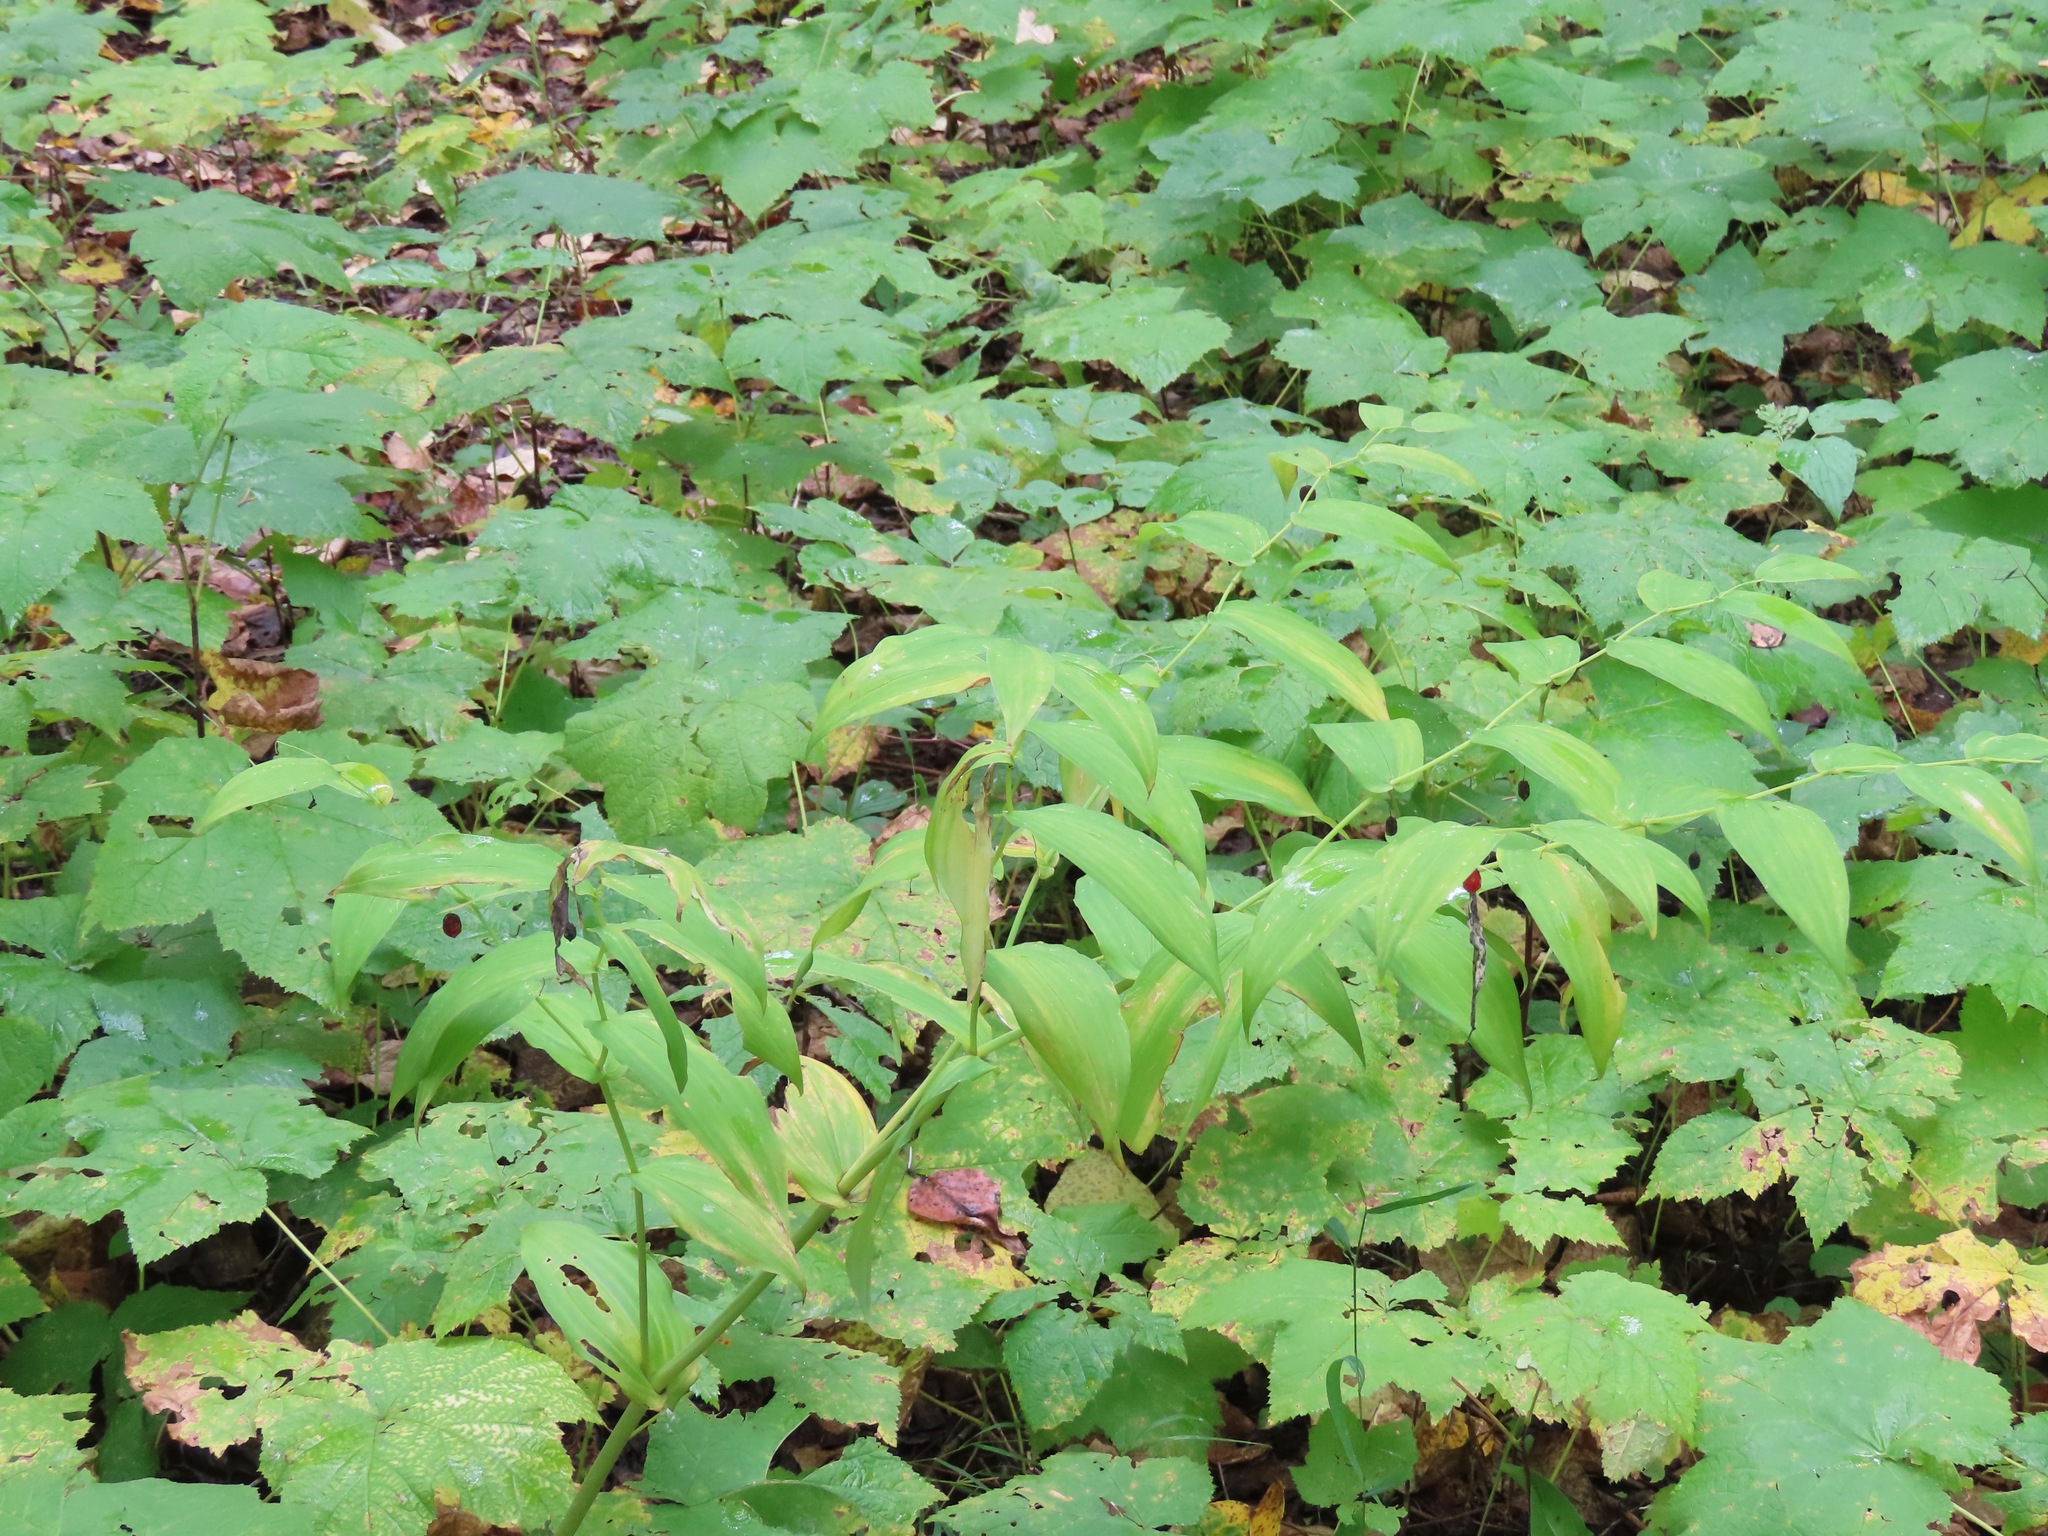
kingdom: Plantae
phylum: Tracheophyta
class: Liliopsida
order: Liliales
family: Liliaceae
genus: Streptopus
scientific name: Streptopus amplexifolius
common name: Clasp twisted stalk
